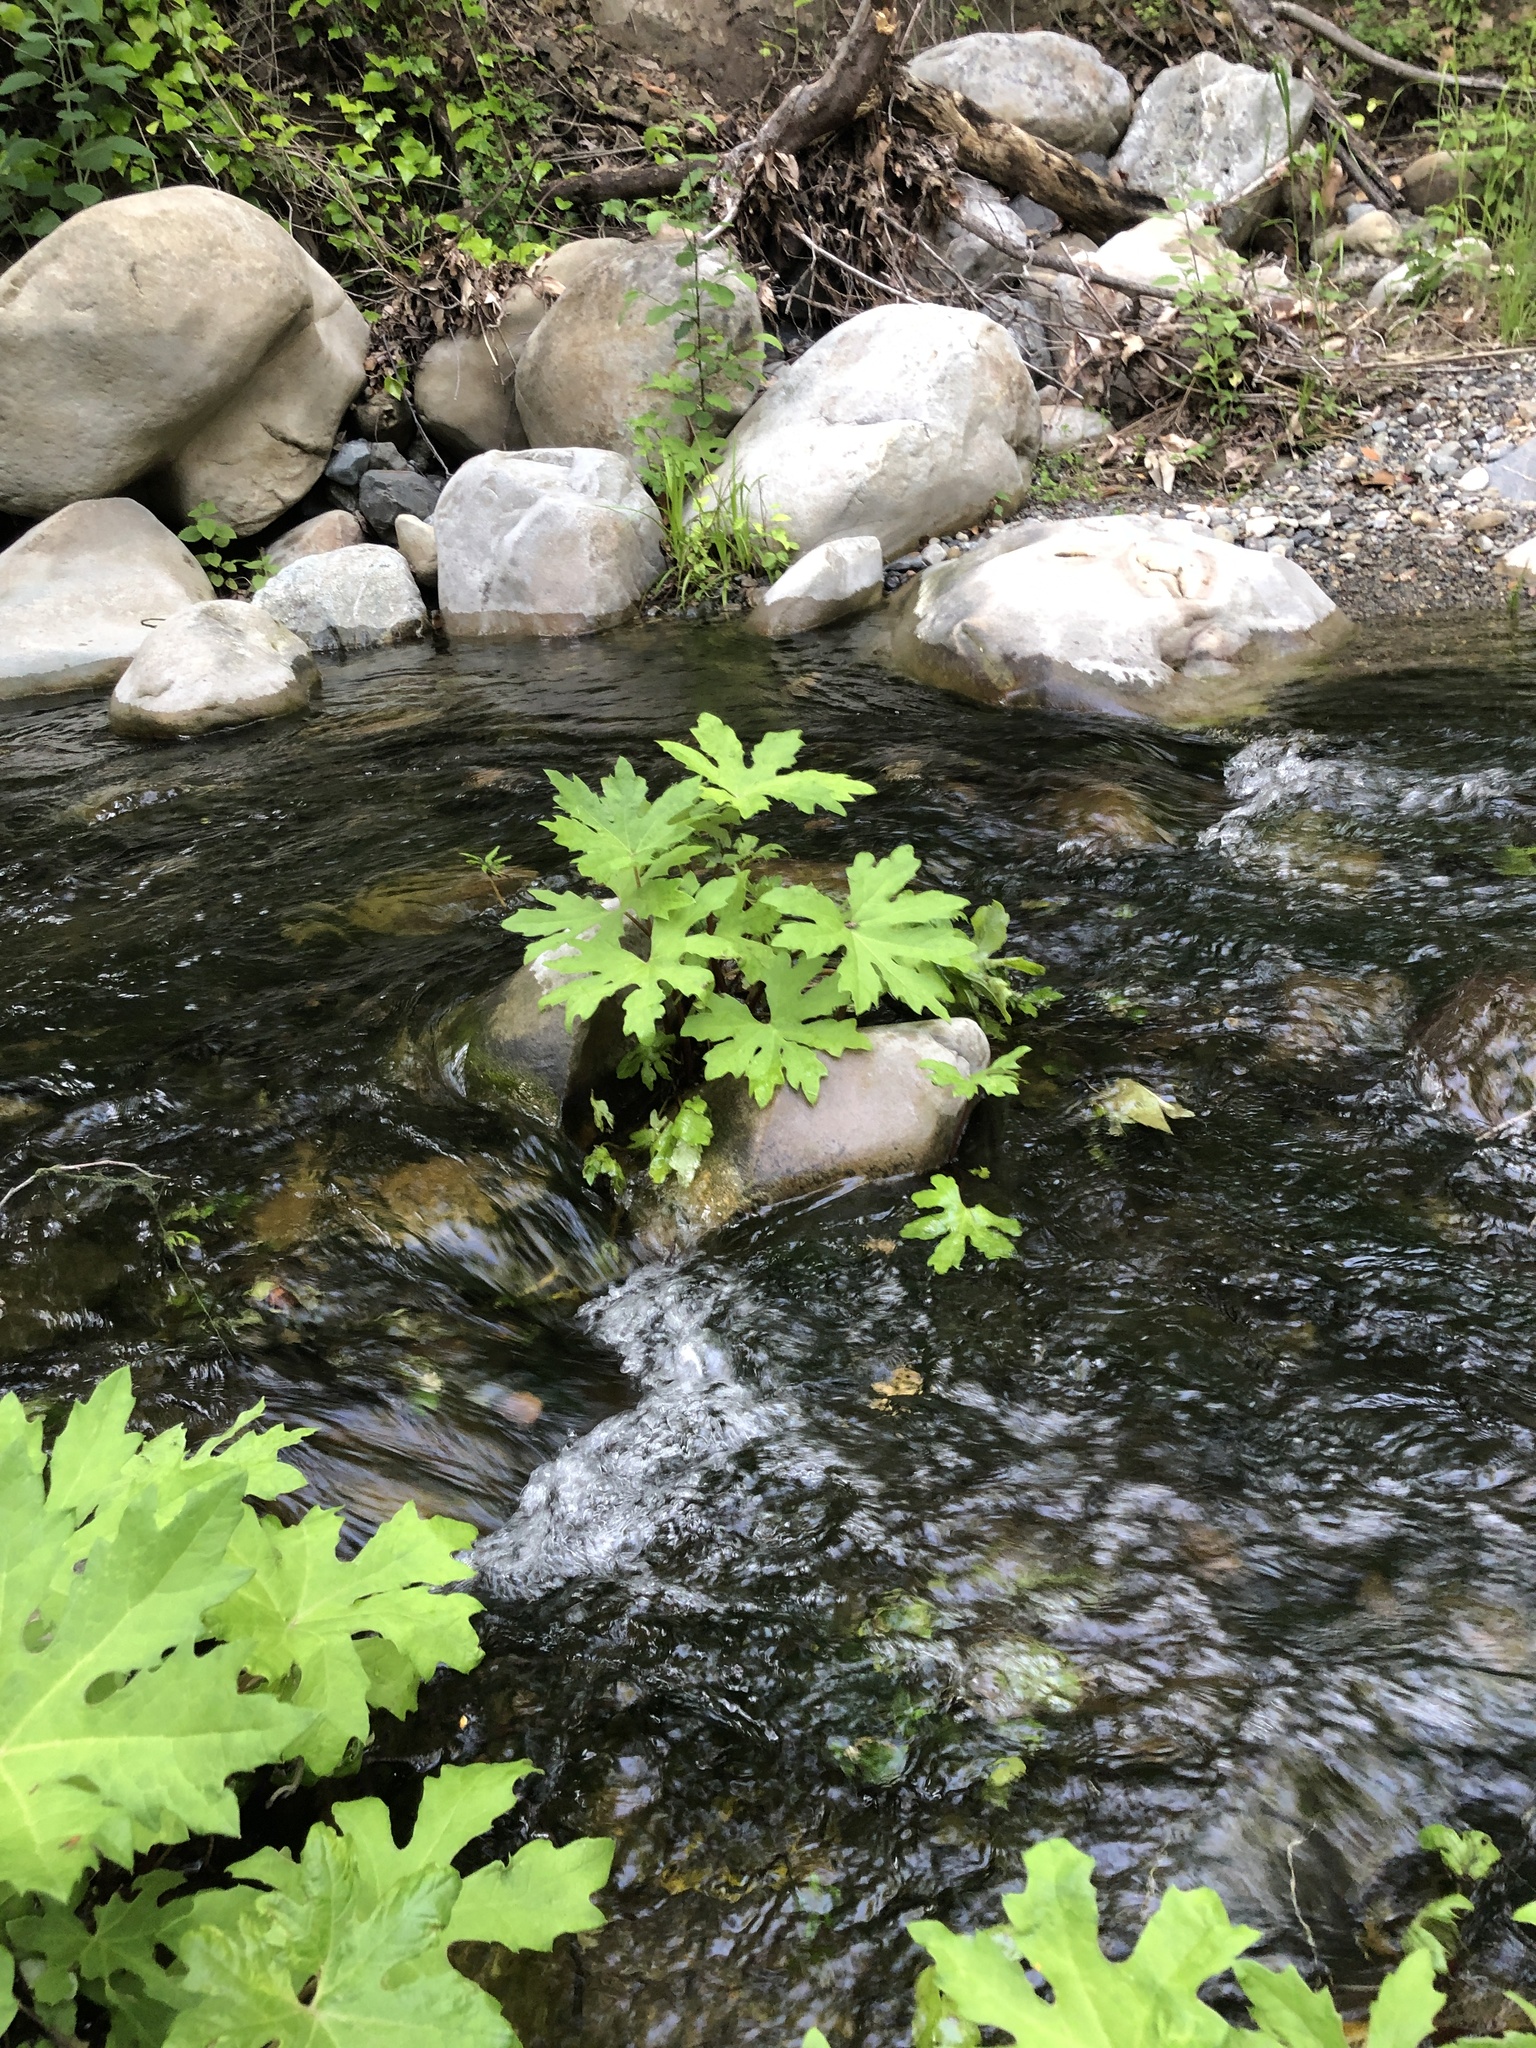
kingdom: Plantae
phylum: Tracheophyta
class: Magnoliopsida
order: Asterales
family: Asteraceae
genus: Petasites
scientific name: Petasites frigidus
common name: Arctic butterbur
